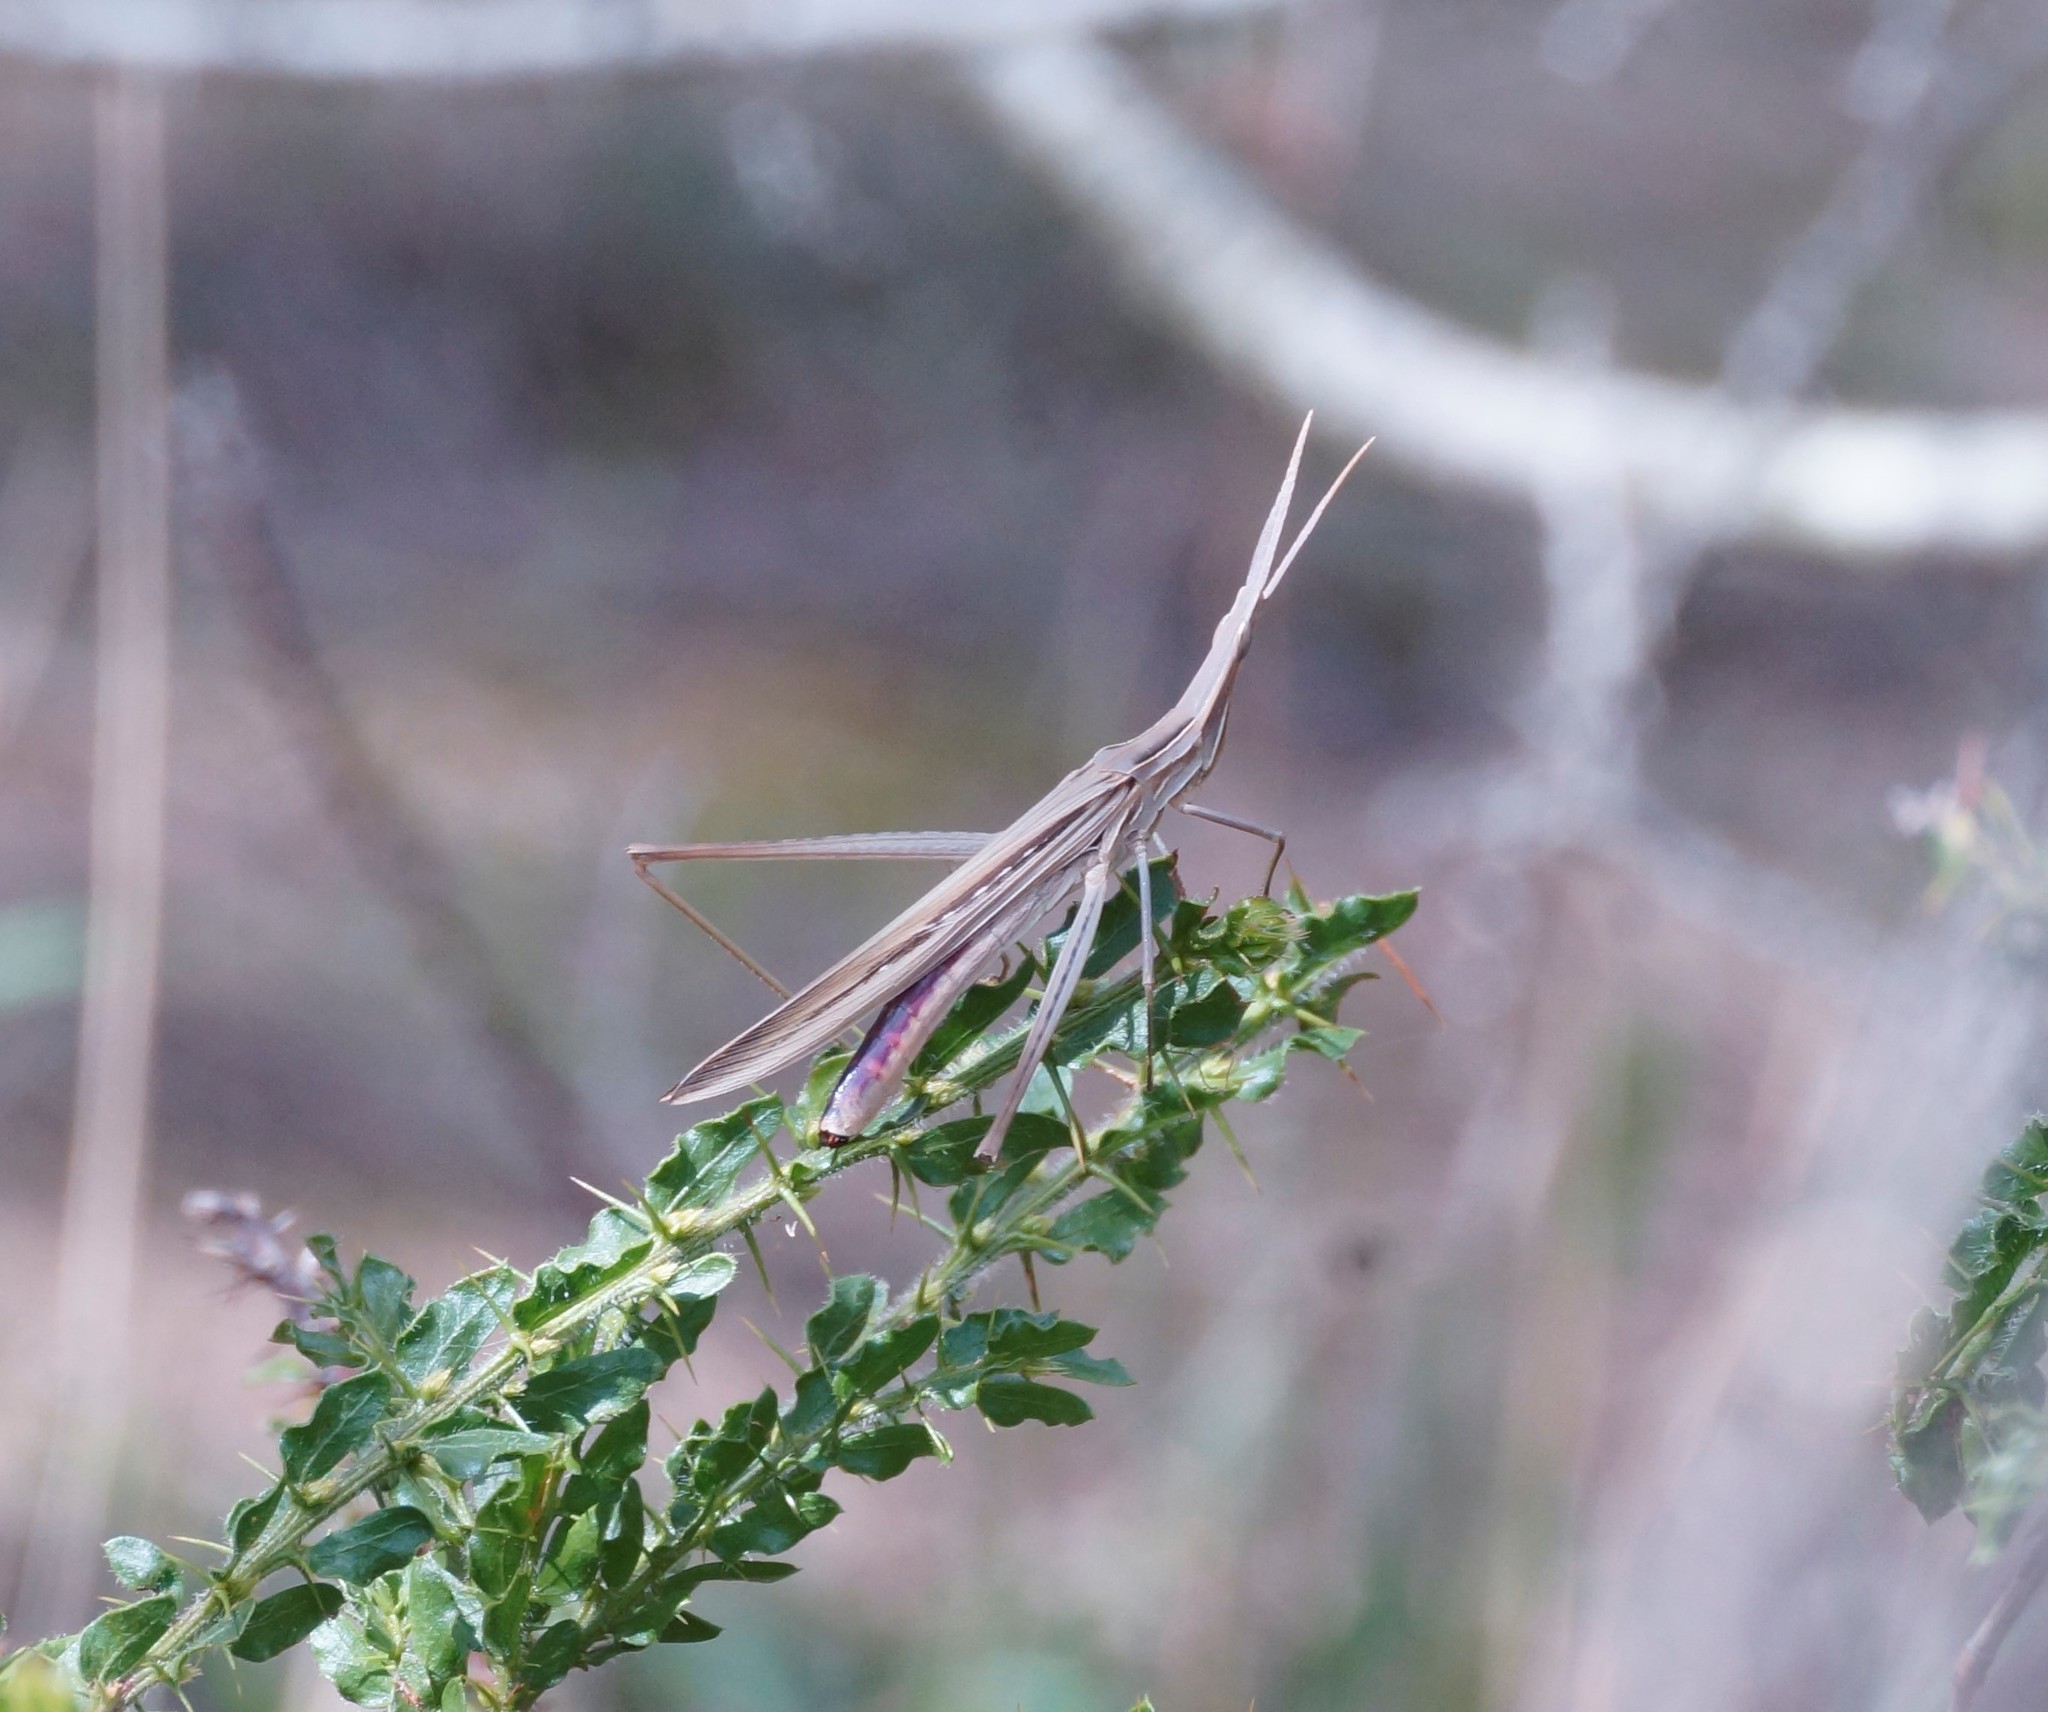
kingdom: Animalia
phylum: Arthropoda
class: Insecta
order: Orthoptera
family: Acrididae
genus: Acrida
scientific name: Acrida conica
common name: Giant green slantface
